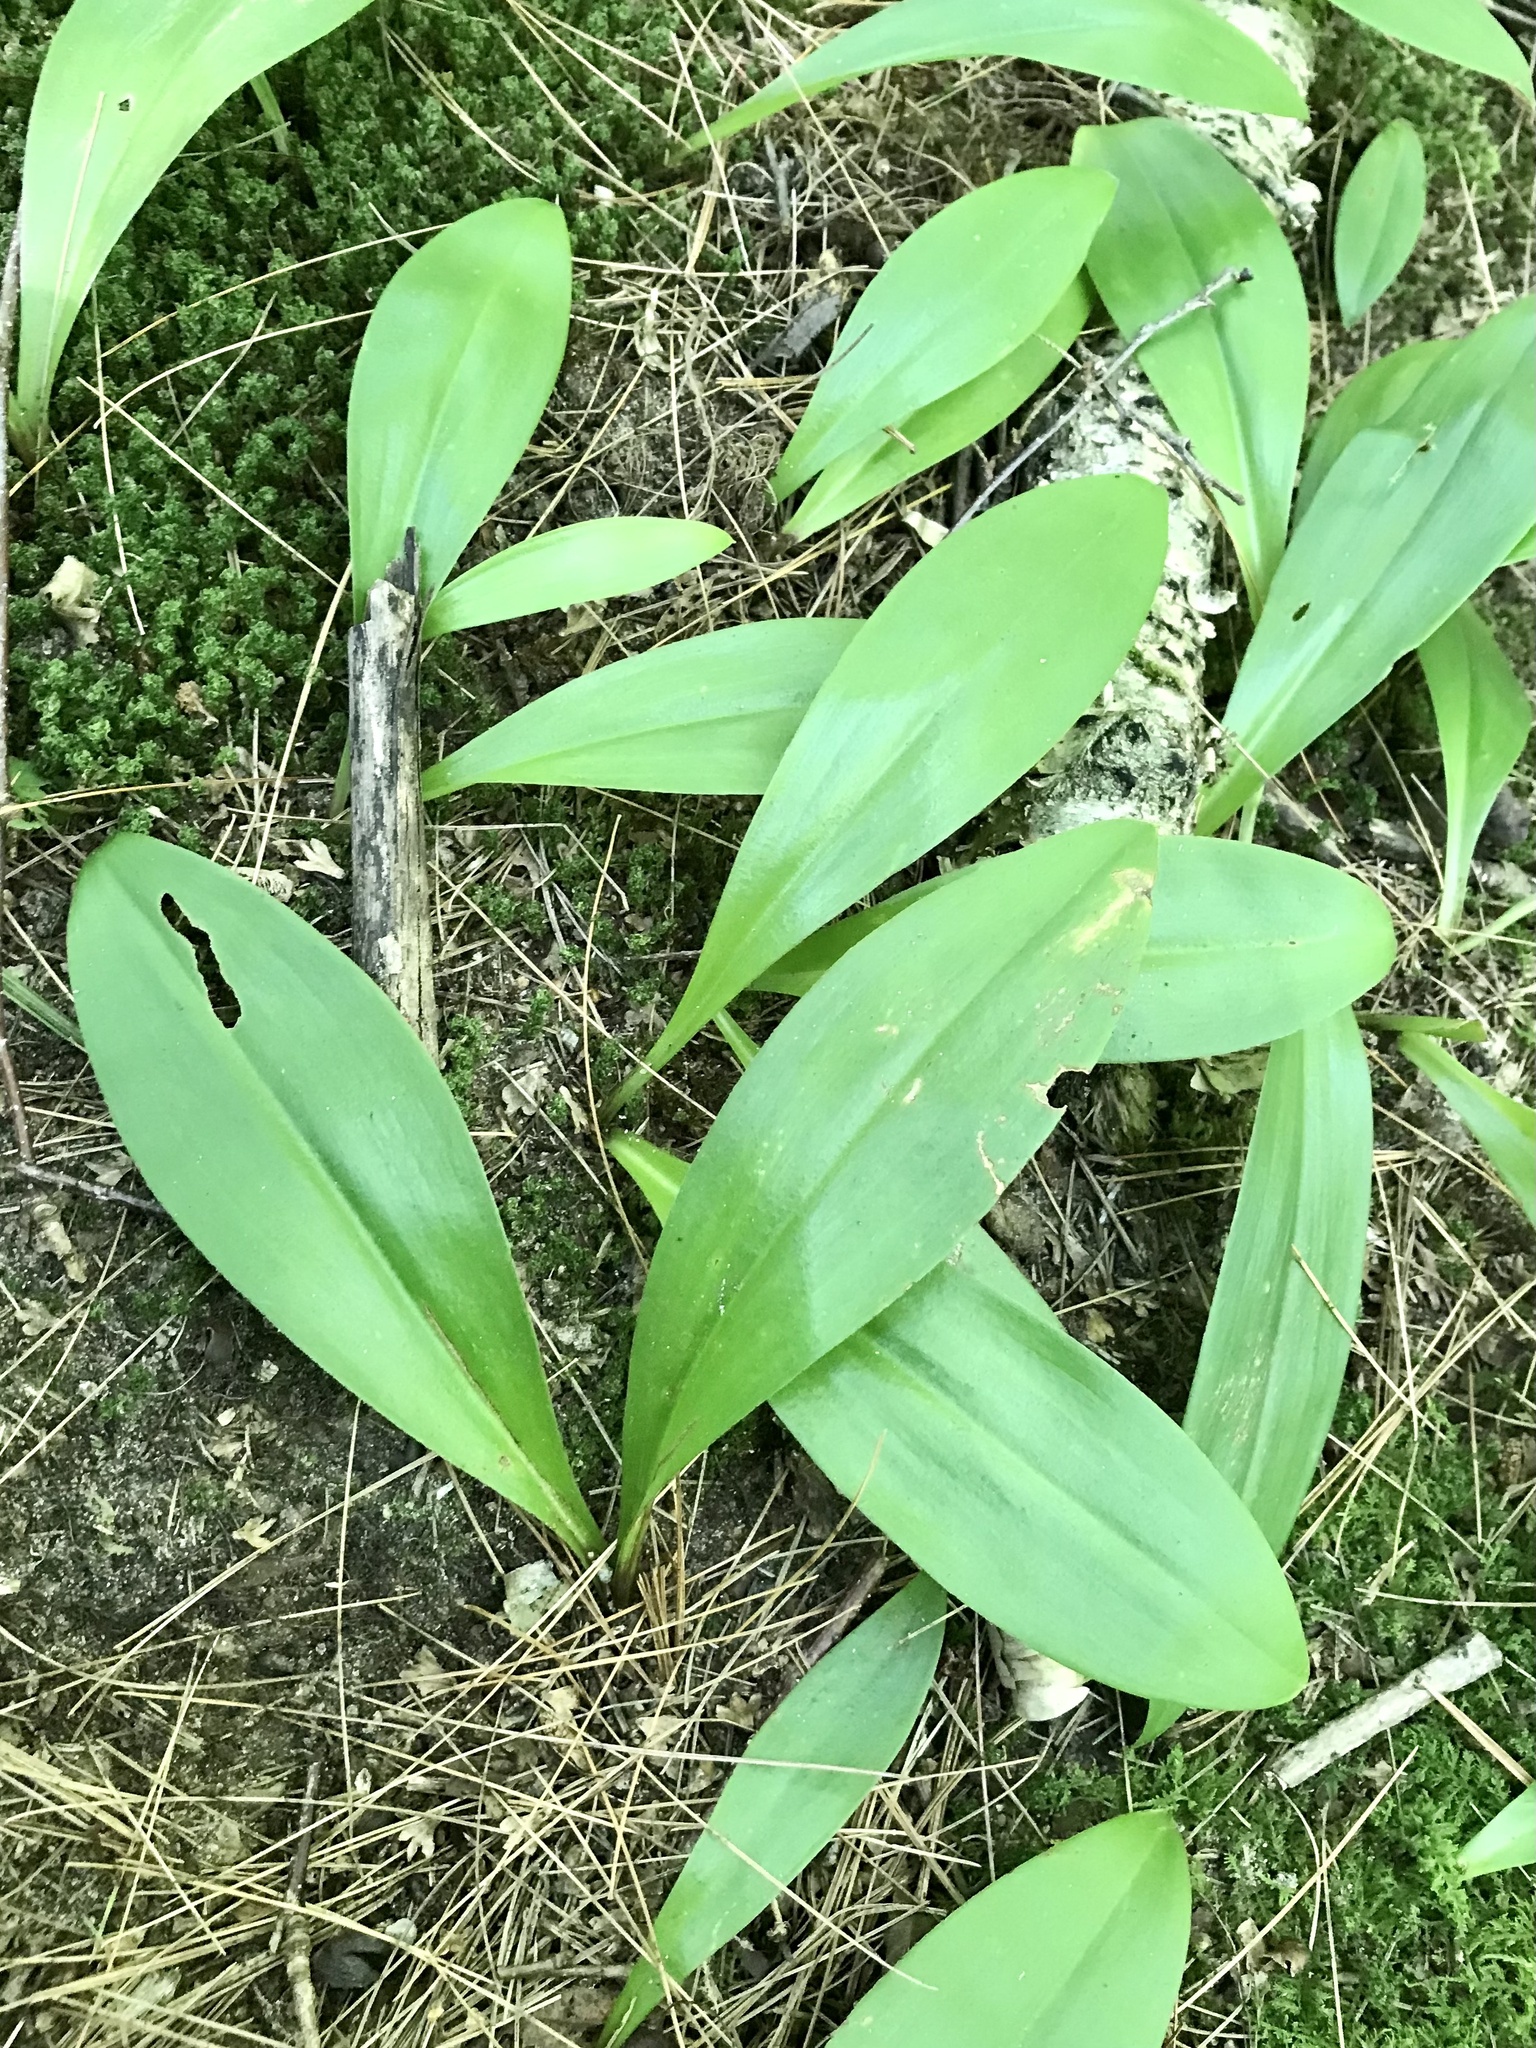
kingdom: Plantae
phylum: Tracheophyta
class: Liliopsida
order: Liliales
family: Liliaceae
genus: Clintonia
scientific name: Clintonia borealis
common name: Yellow clintonia
